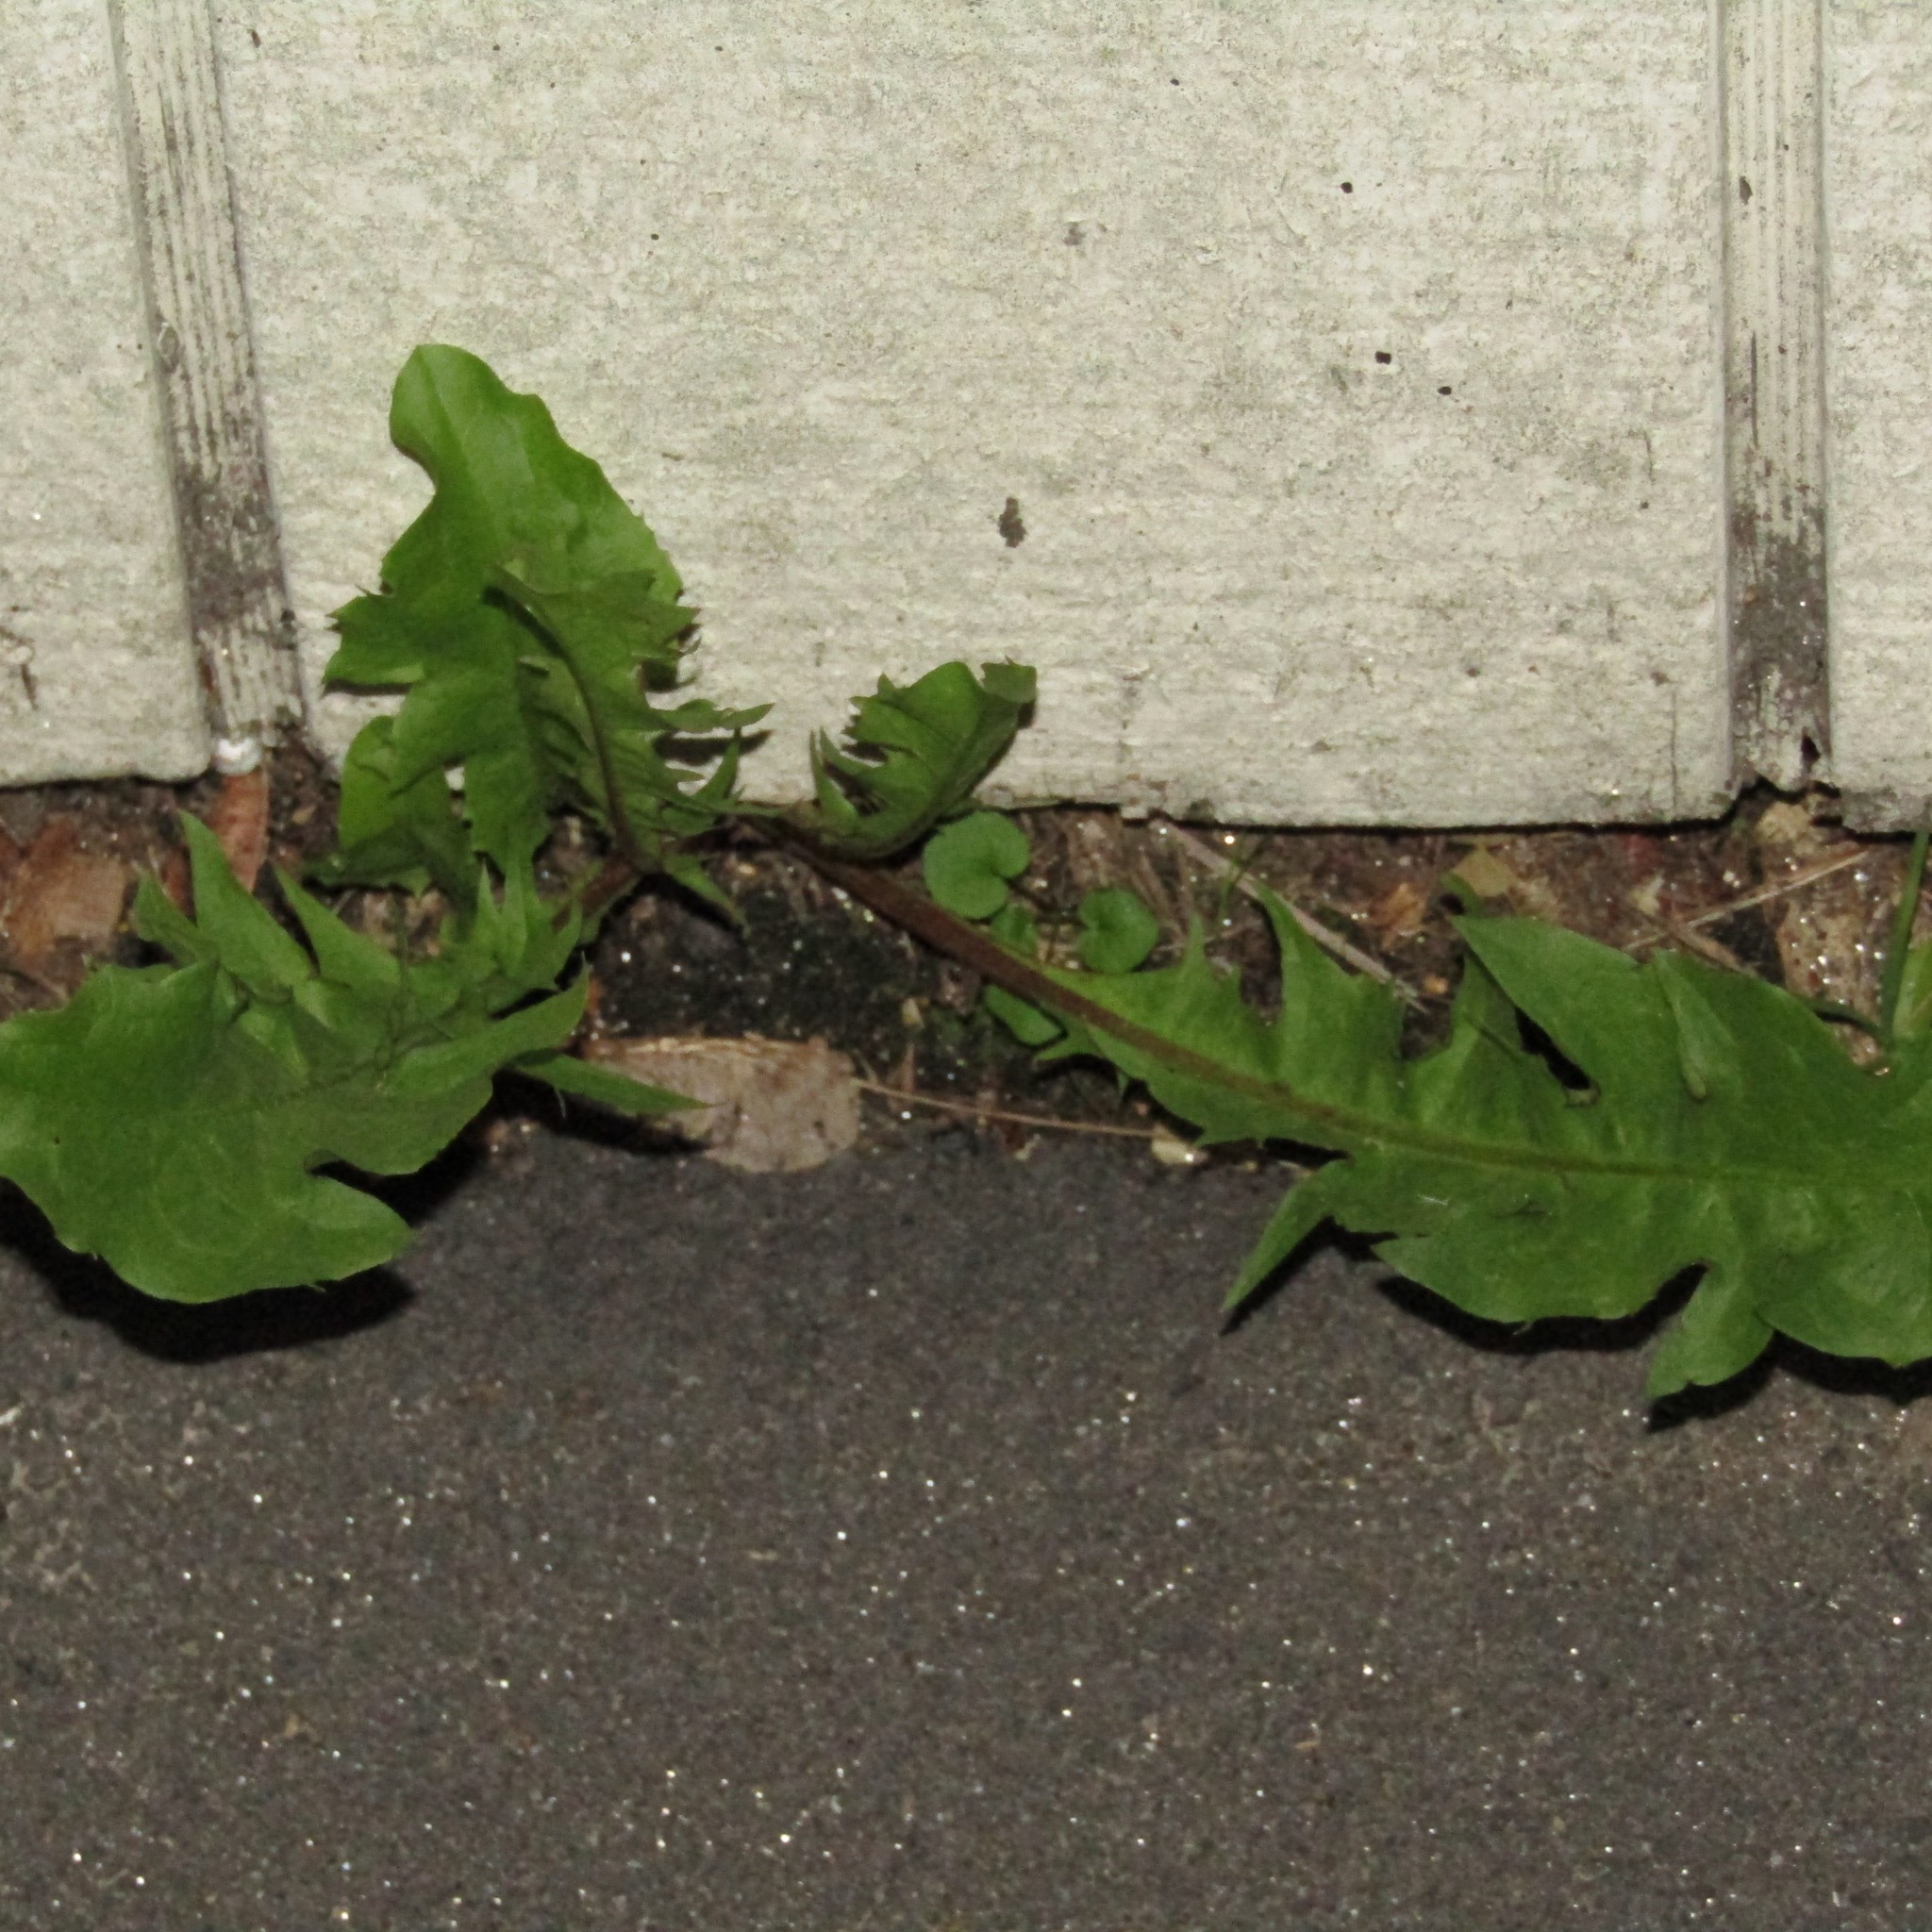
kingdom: Plantae
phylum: Tracheophyta
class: Magnoliopsida
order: Asterales
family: Asteraceae
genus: Taraxacum
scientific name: Taraxacum officinale
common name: Common dandelion
